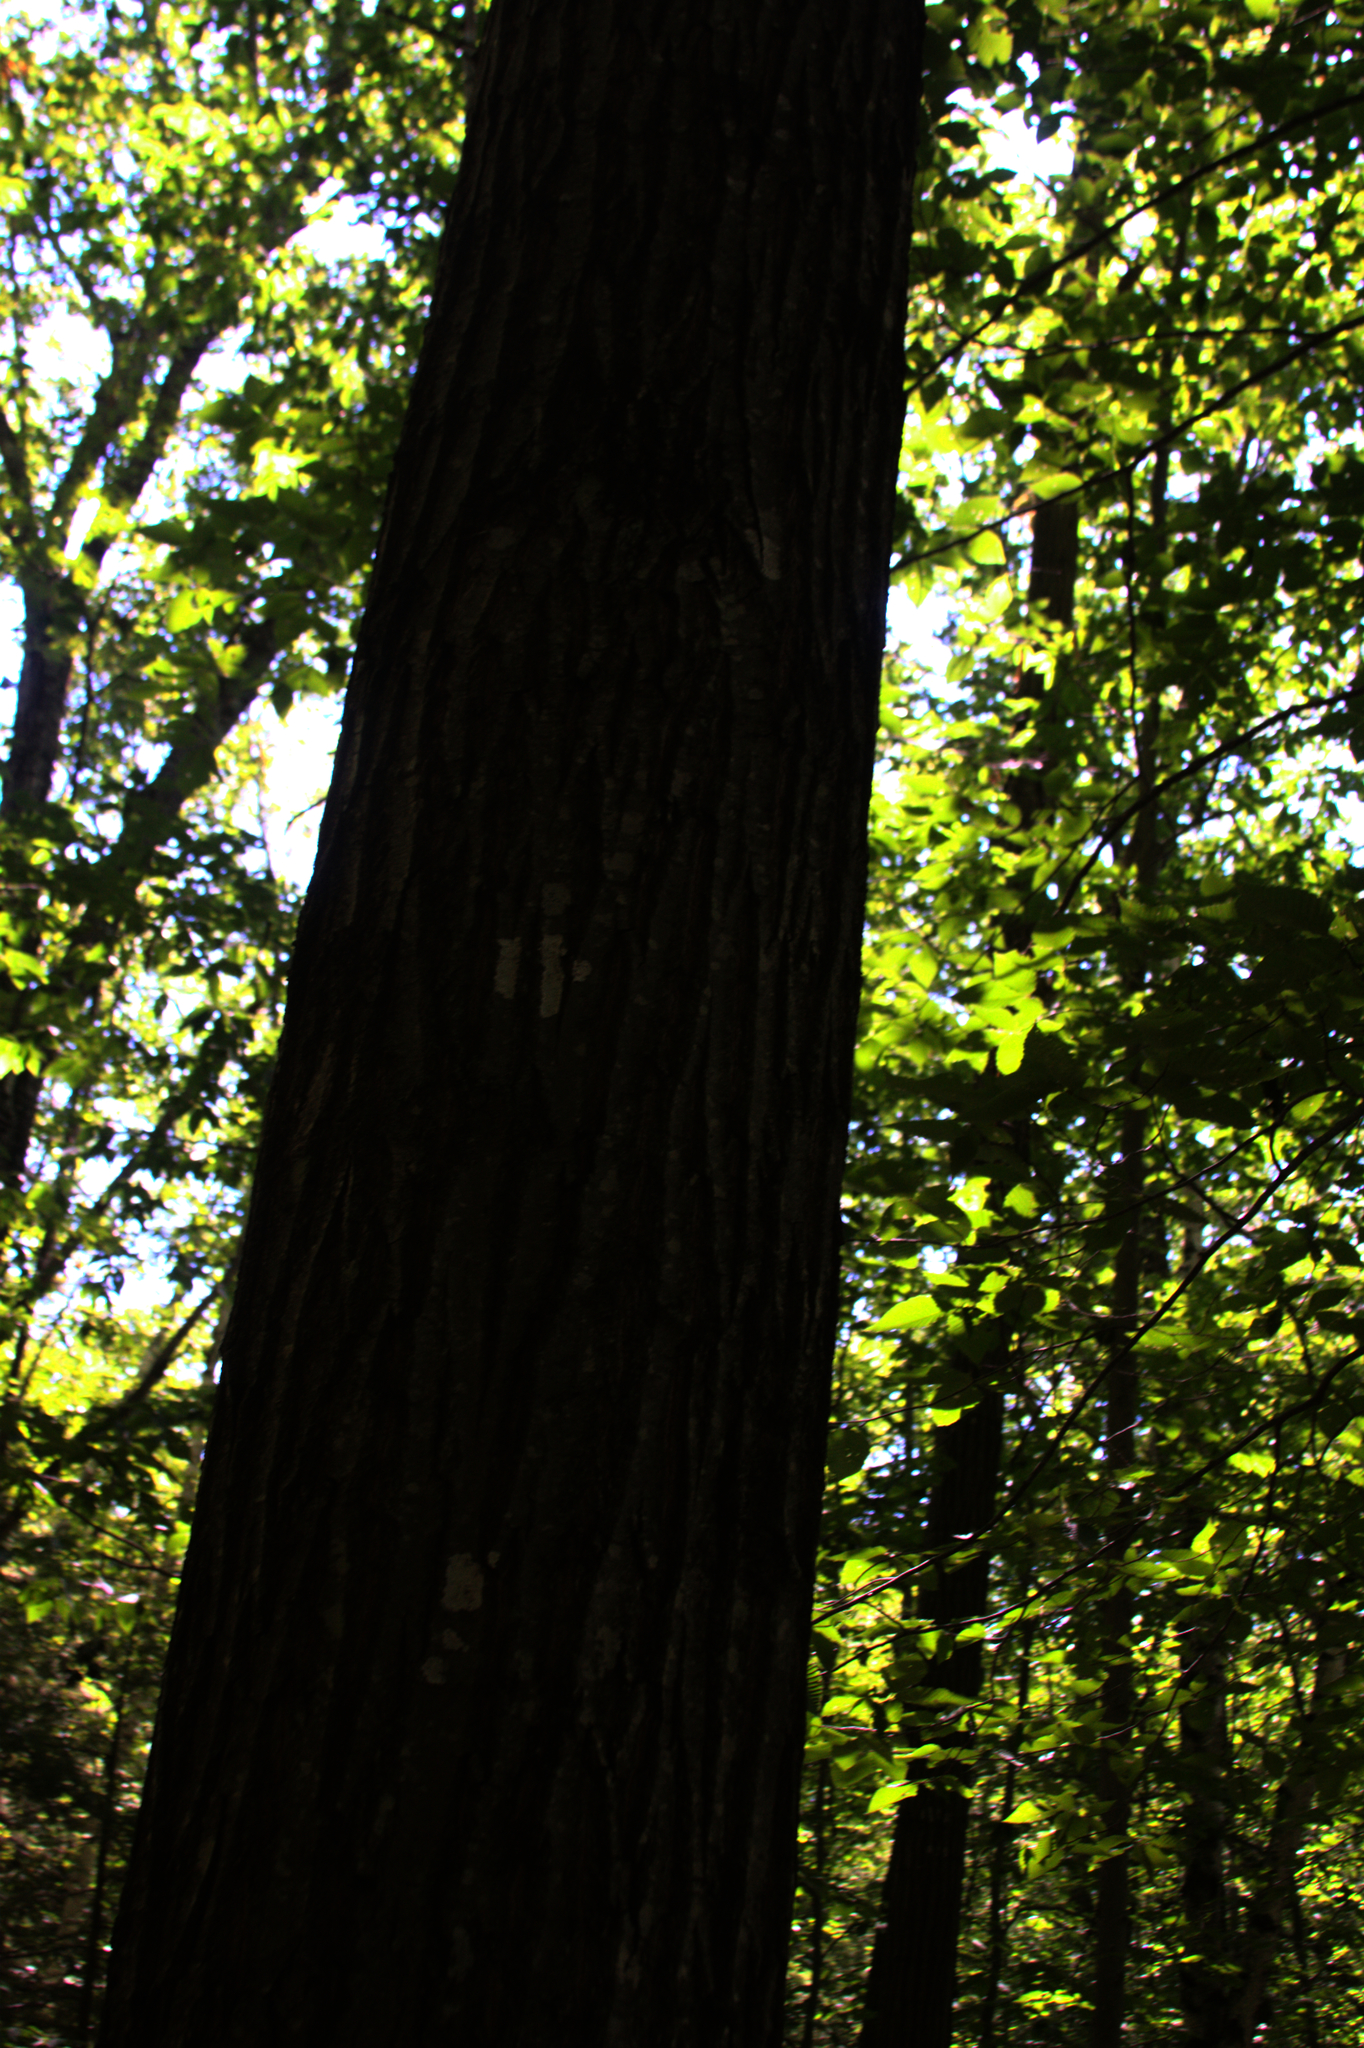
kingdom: Plantae
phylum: Tracheophyta
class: Magnoliopsida
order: Fagales
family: Fagaceae
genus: Quercus
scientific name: Quercus rubra
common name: Red oak
